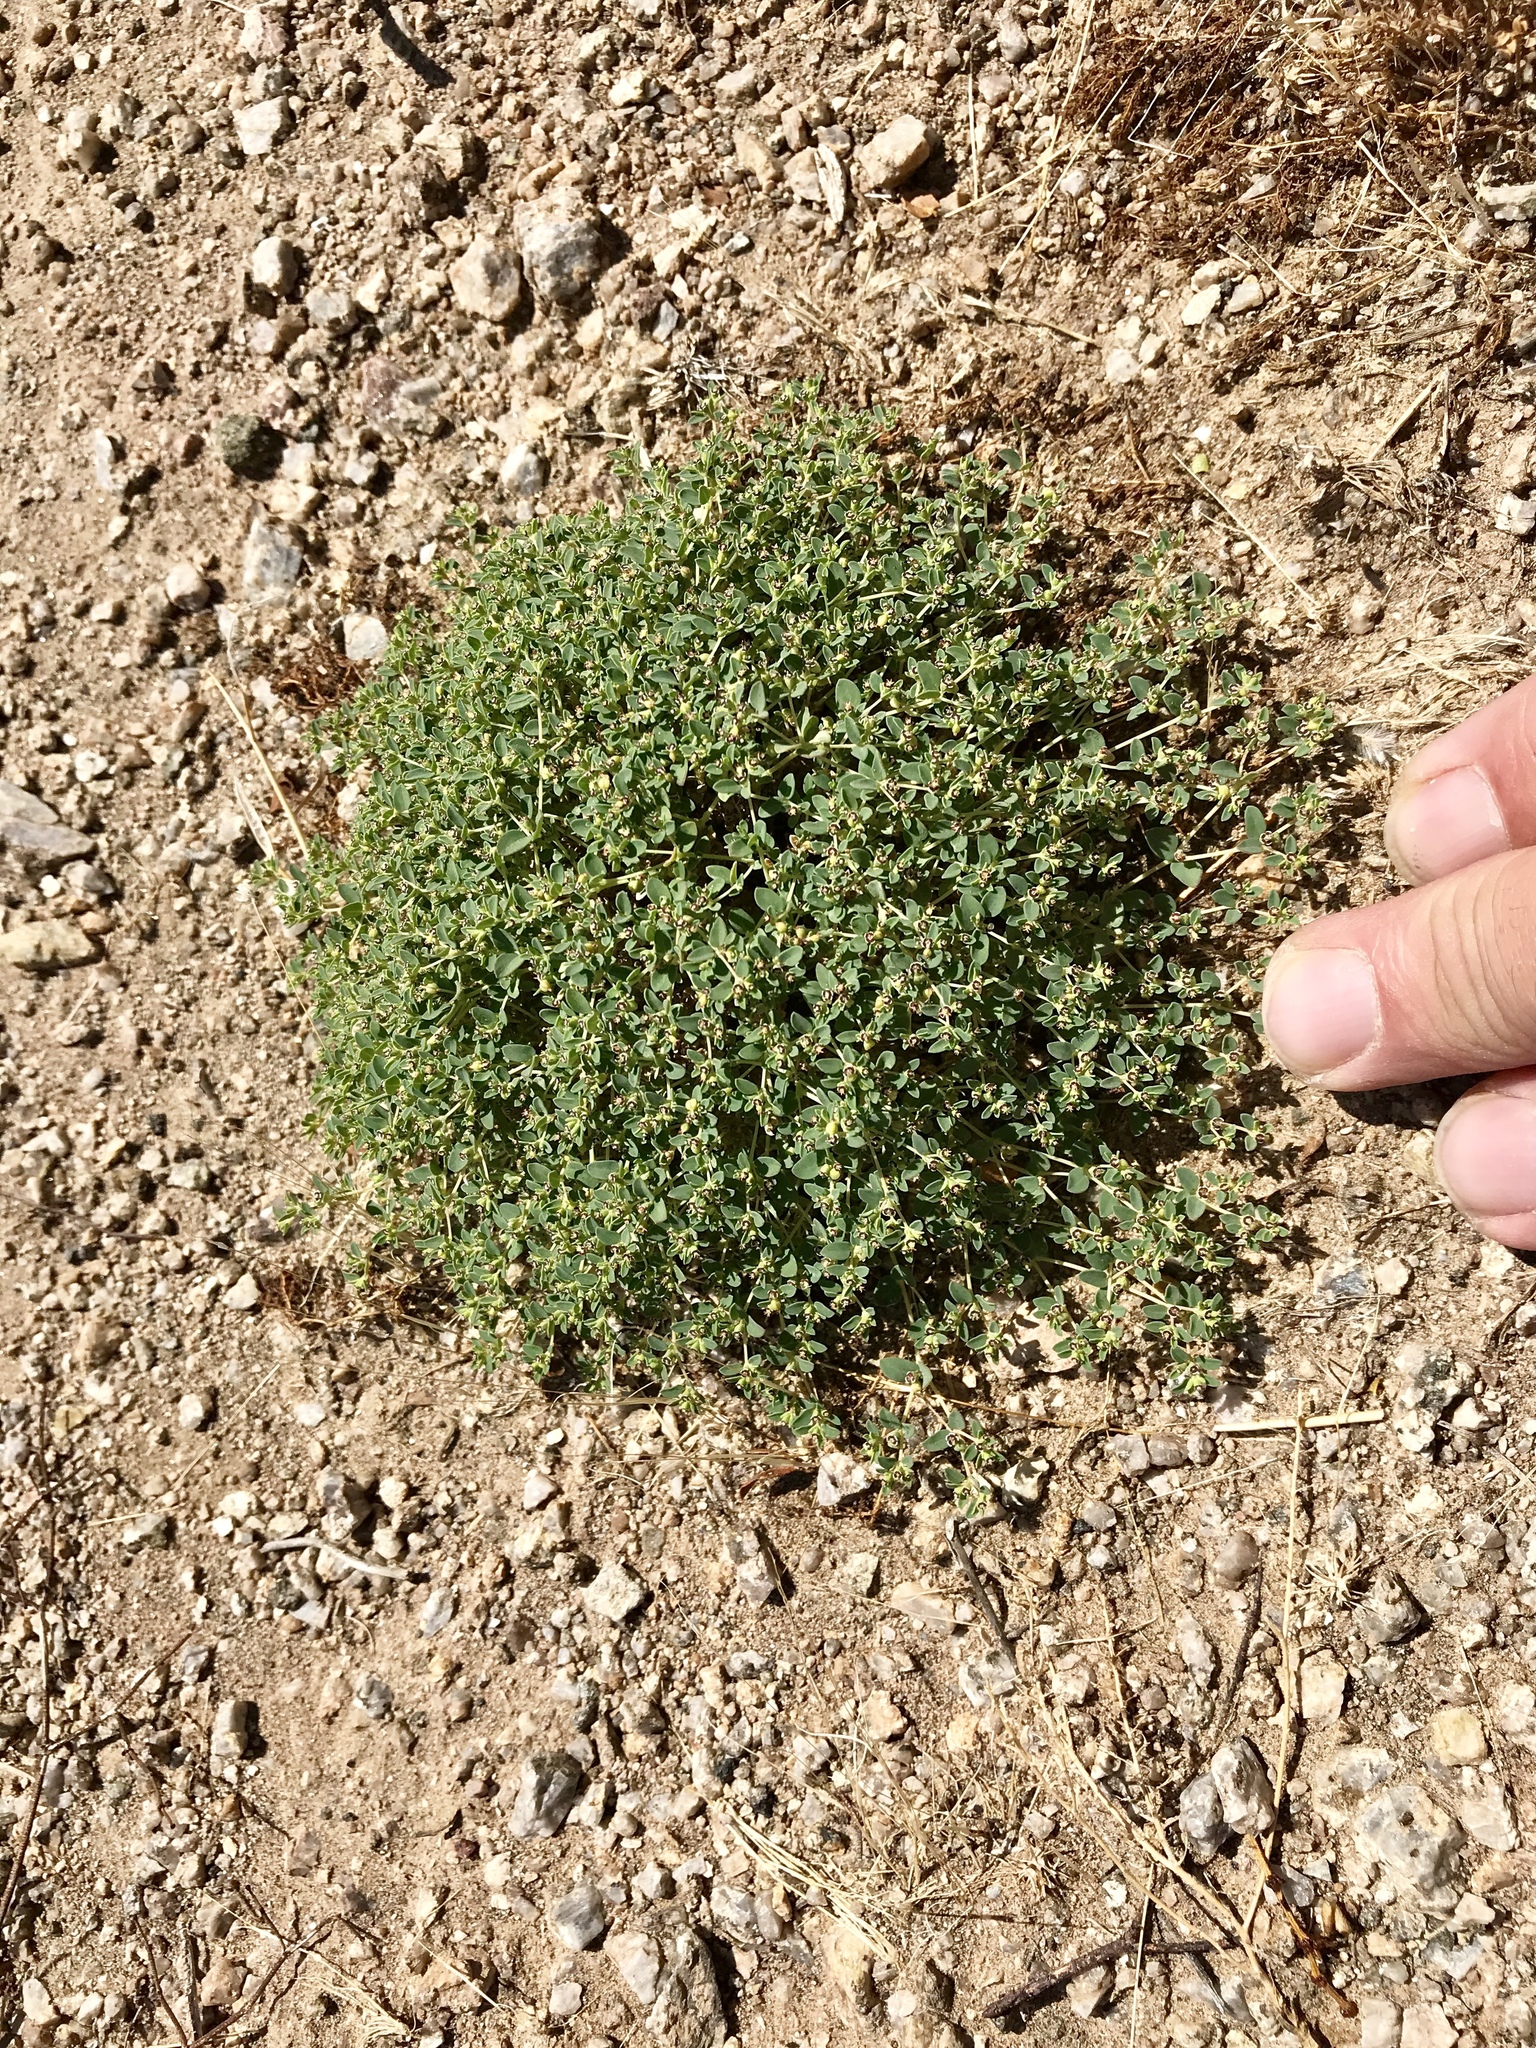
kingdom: Plantae
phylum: Tracheophyta
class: Magnoliopsida
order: Malpighiales
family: Euphorbiaceae
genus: Euphorbia
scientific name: Euphorbia polycarpa
